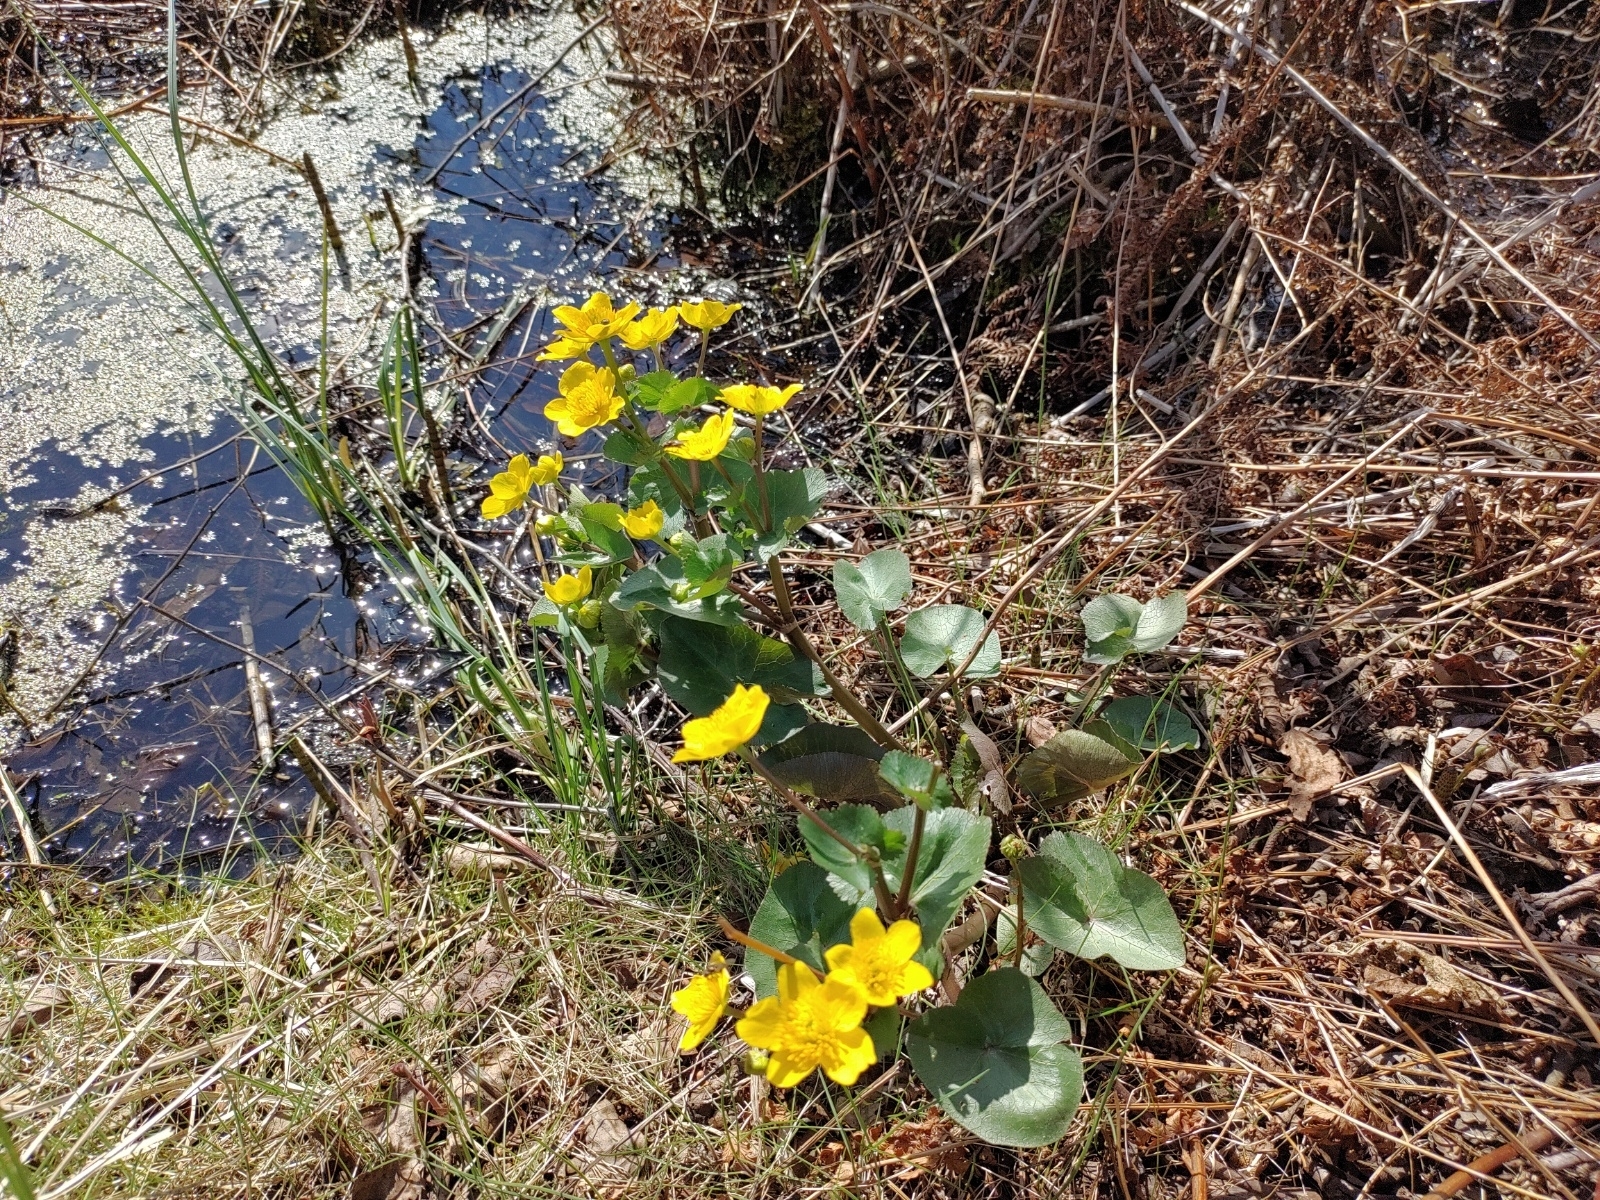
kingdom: Plantae
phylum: Tracheophyta
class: Magnoliopsida
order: Ranunculales
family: Ranunculaceae
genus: Caltha
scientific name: Caltha palustris
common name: Marsh marigold
